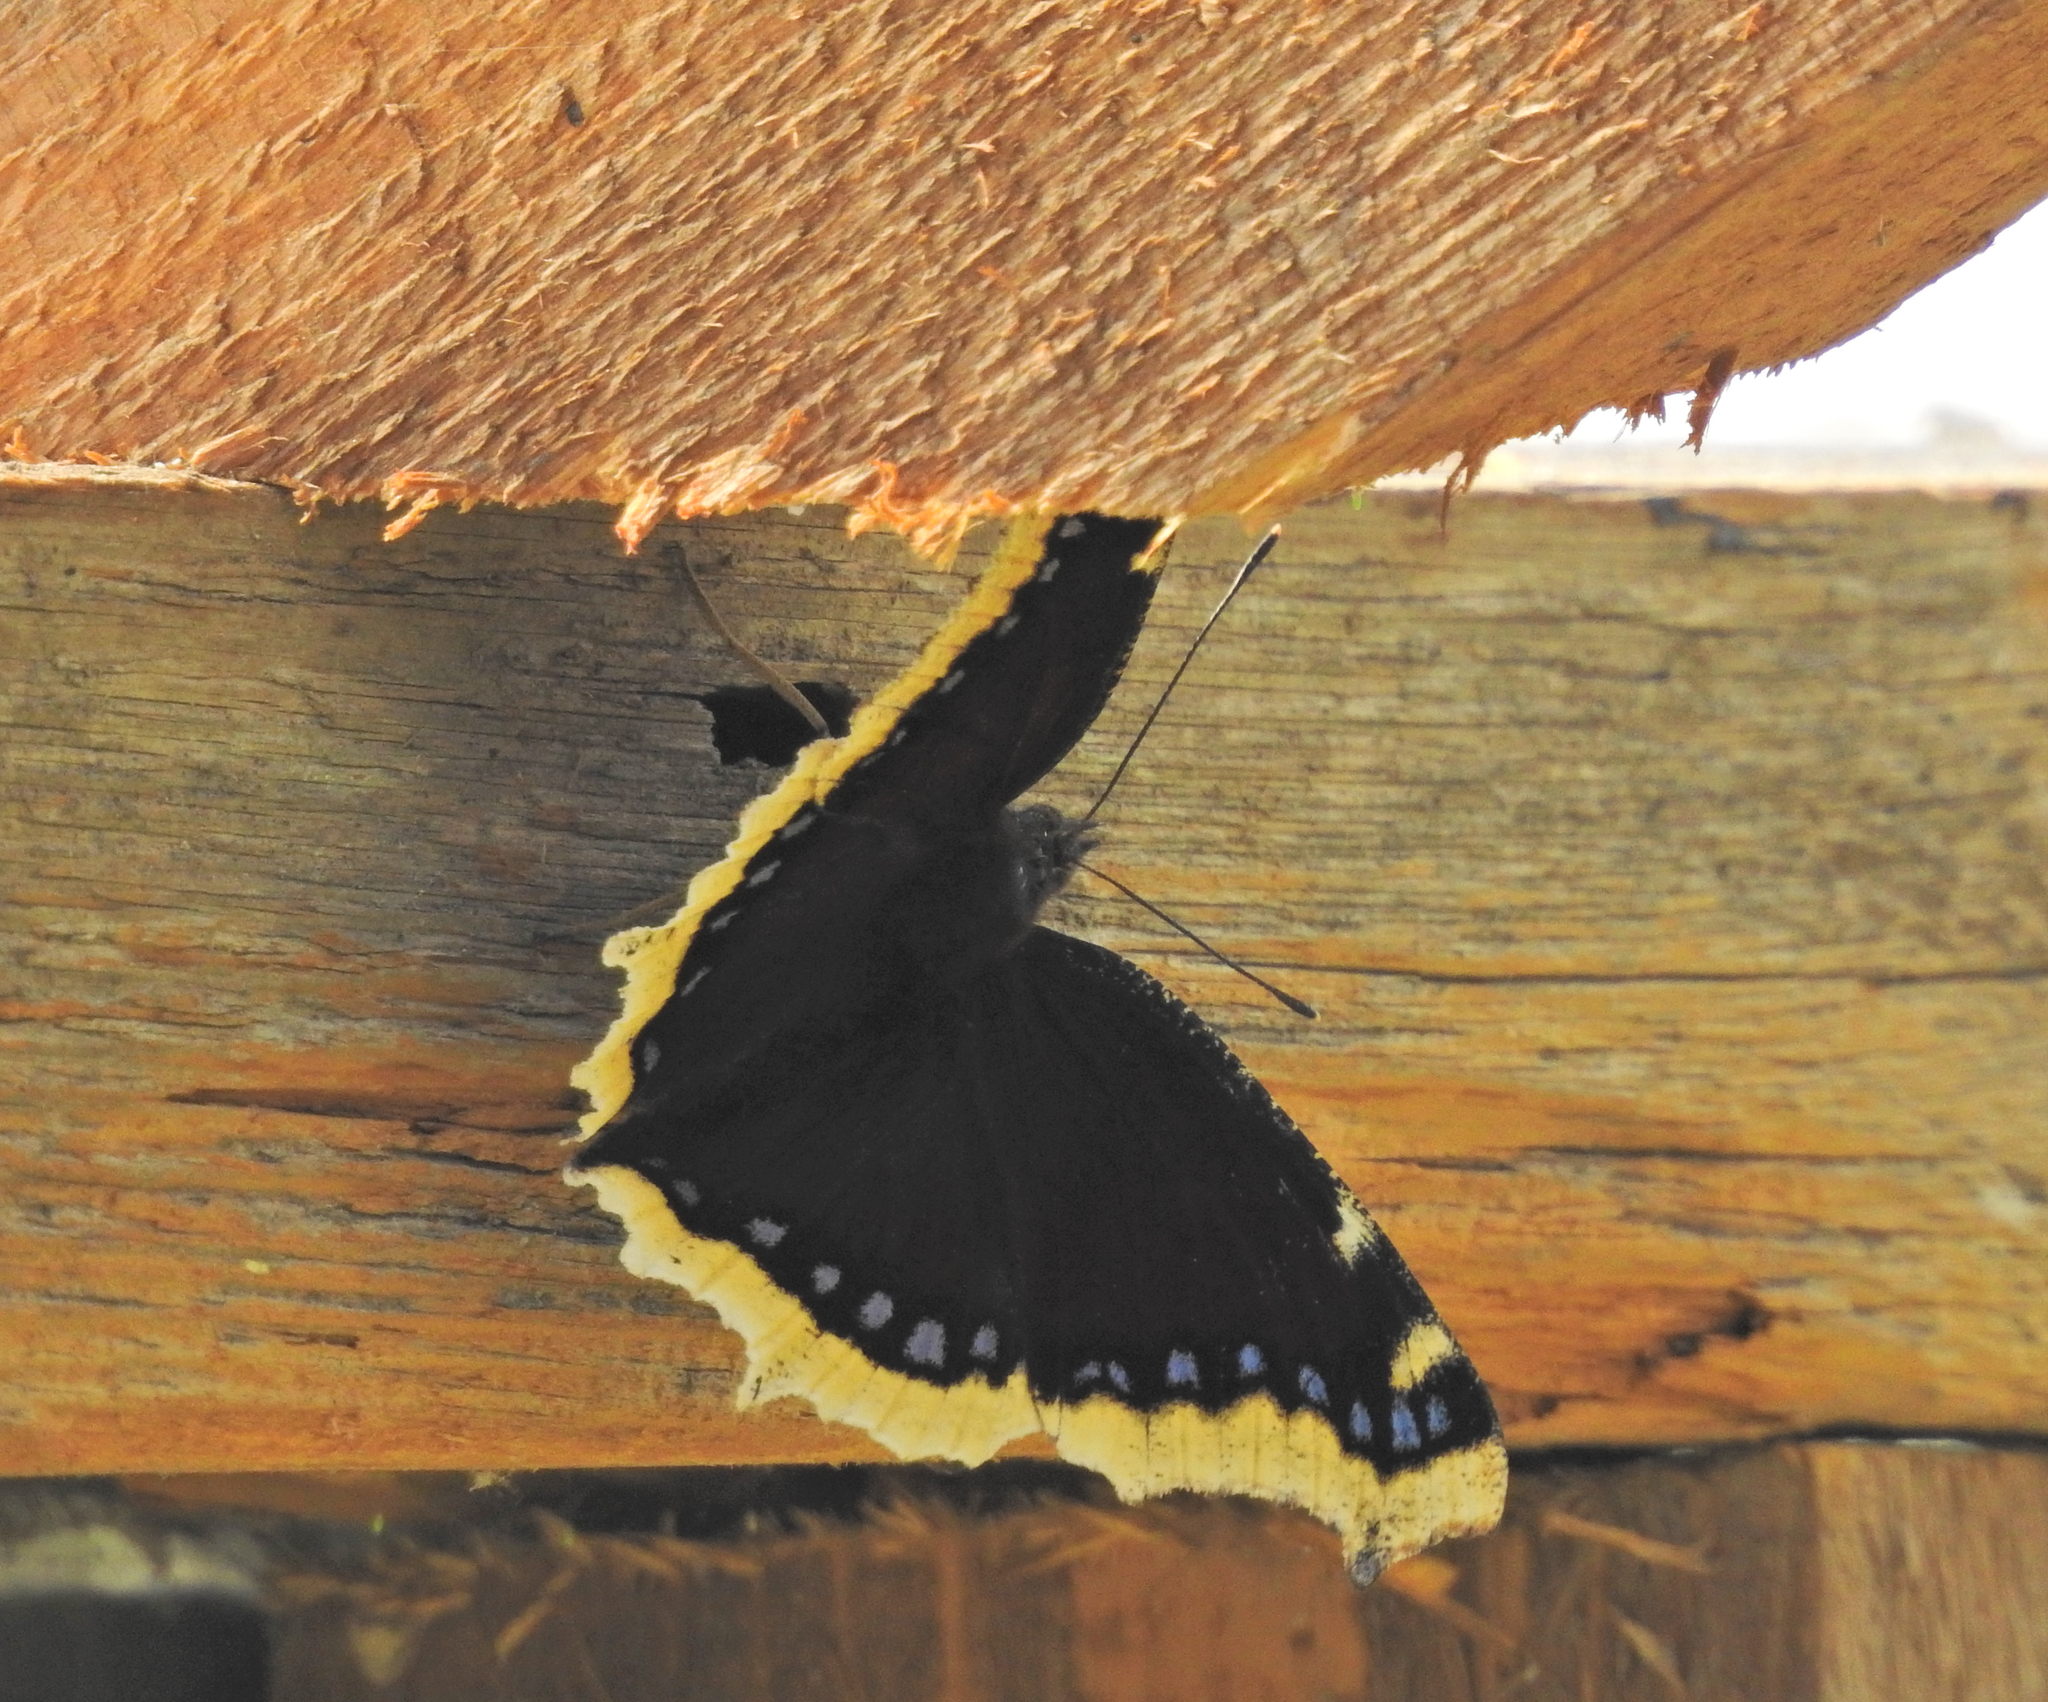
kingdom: Animalia
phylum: Arthropoda
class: Insecta
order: Lepidoptera
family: Nymphalidae
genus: Nymphalis
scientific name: Nymphalis antiopa
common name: Camberwell beauty
